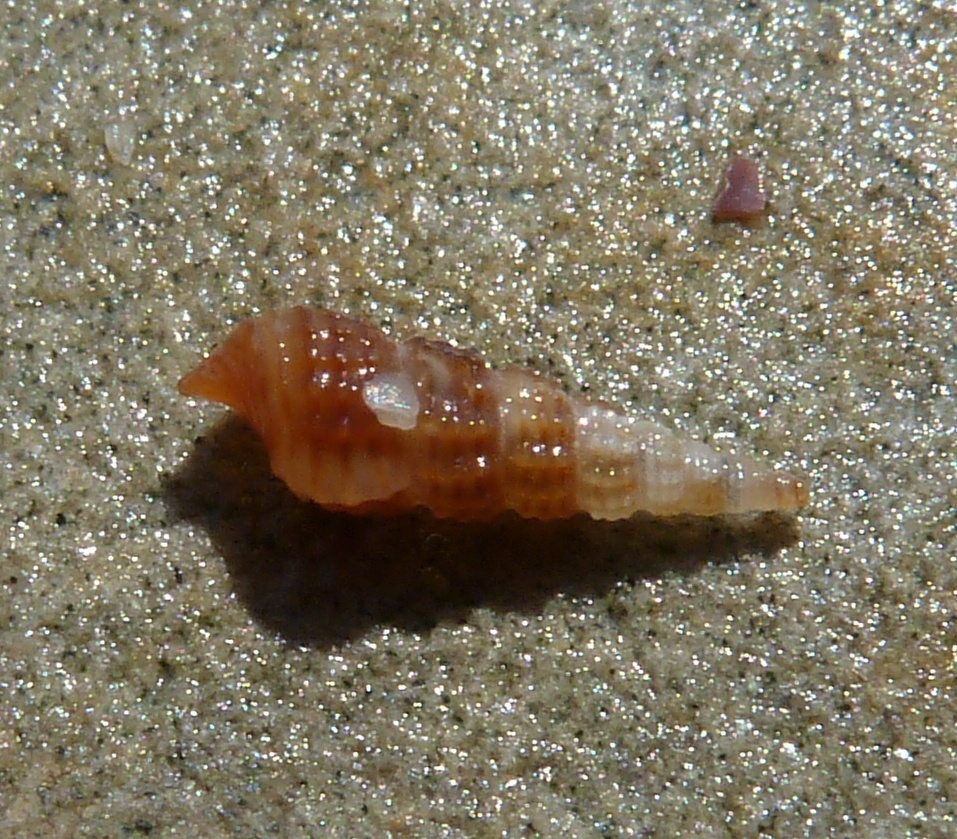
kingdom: Animalia
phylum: Mollusca
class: Gastropoda
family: Cerithiidae
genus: Bittium
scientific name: Bittium reticulatum
